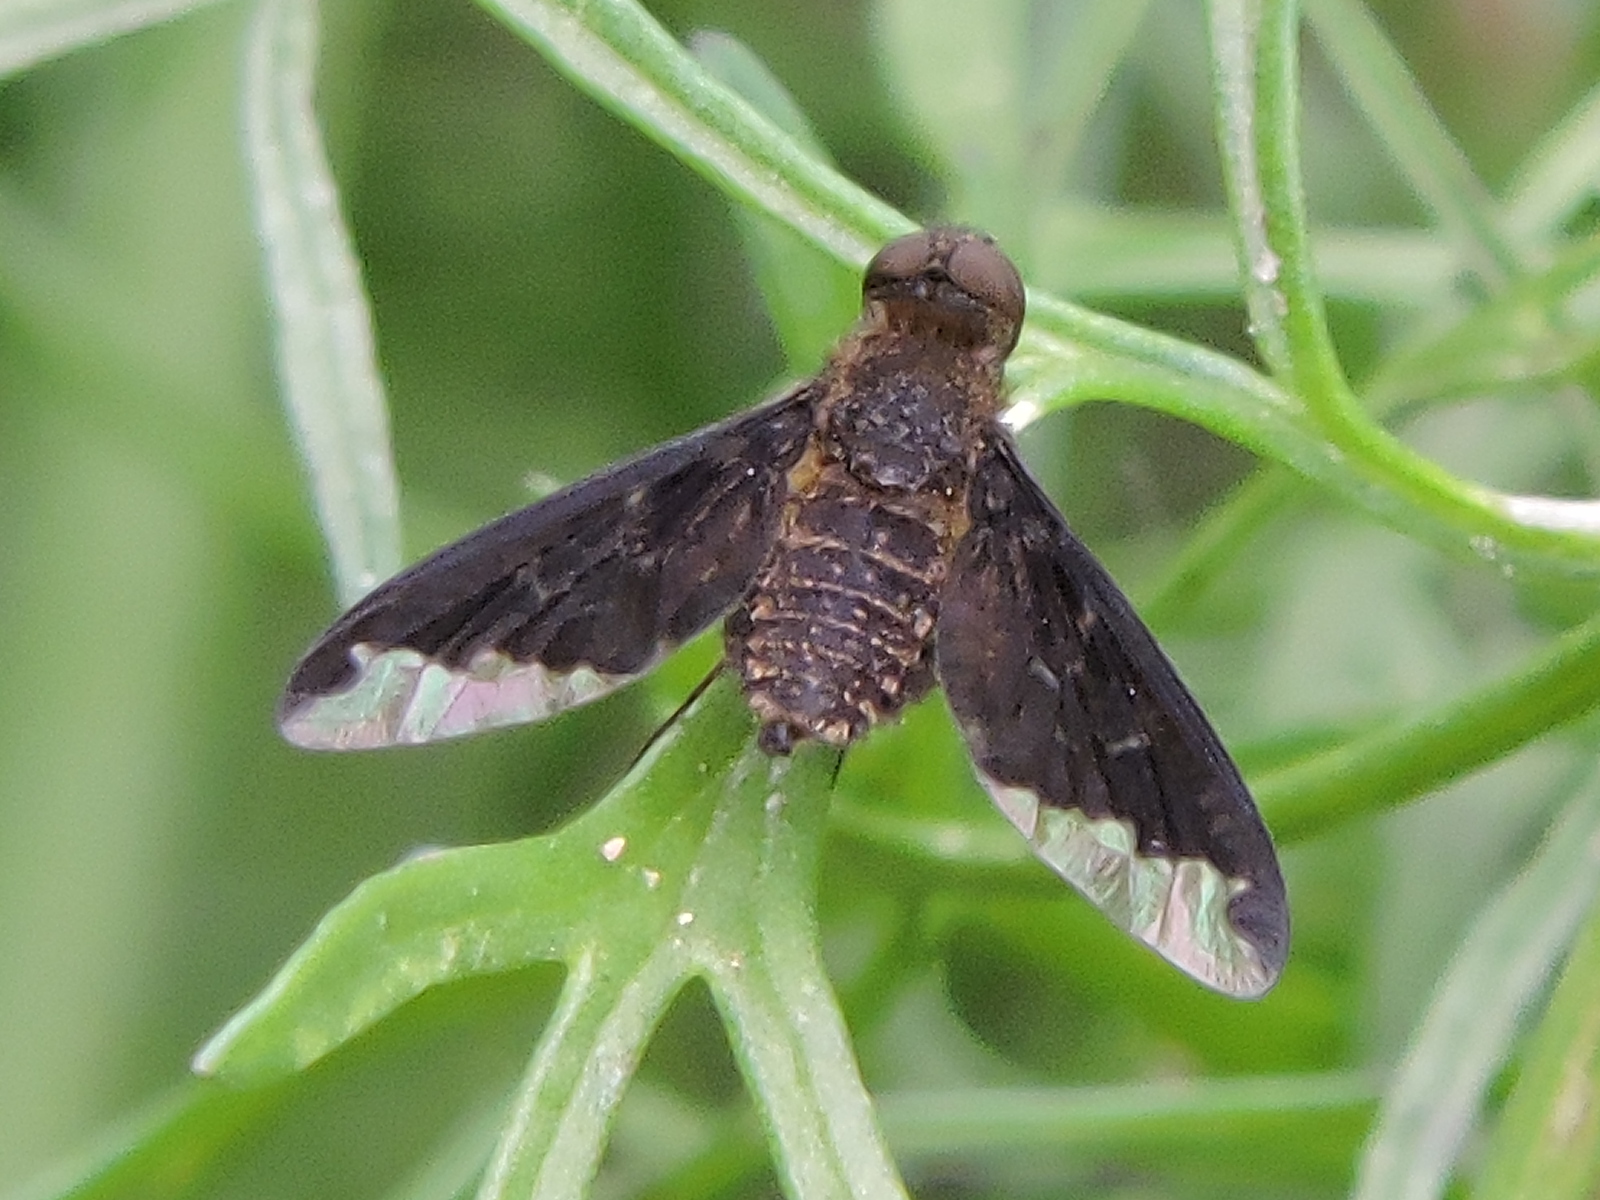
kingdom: Animalia
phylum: Arthropoda
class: Insecta
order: Diptera
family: Bombyliidae
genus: Hemipenthes
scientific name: Hemipenthes sinuosus
